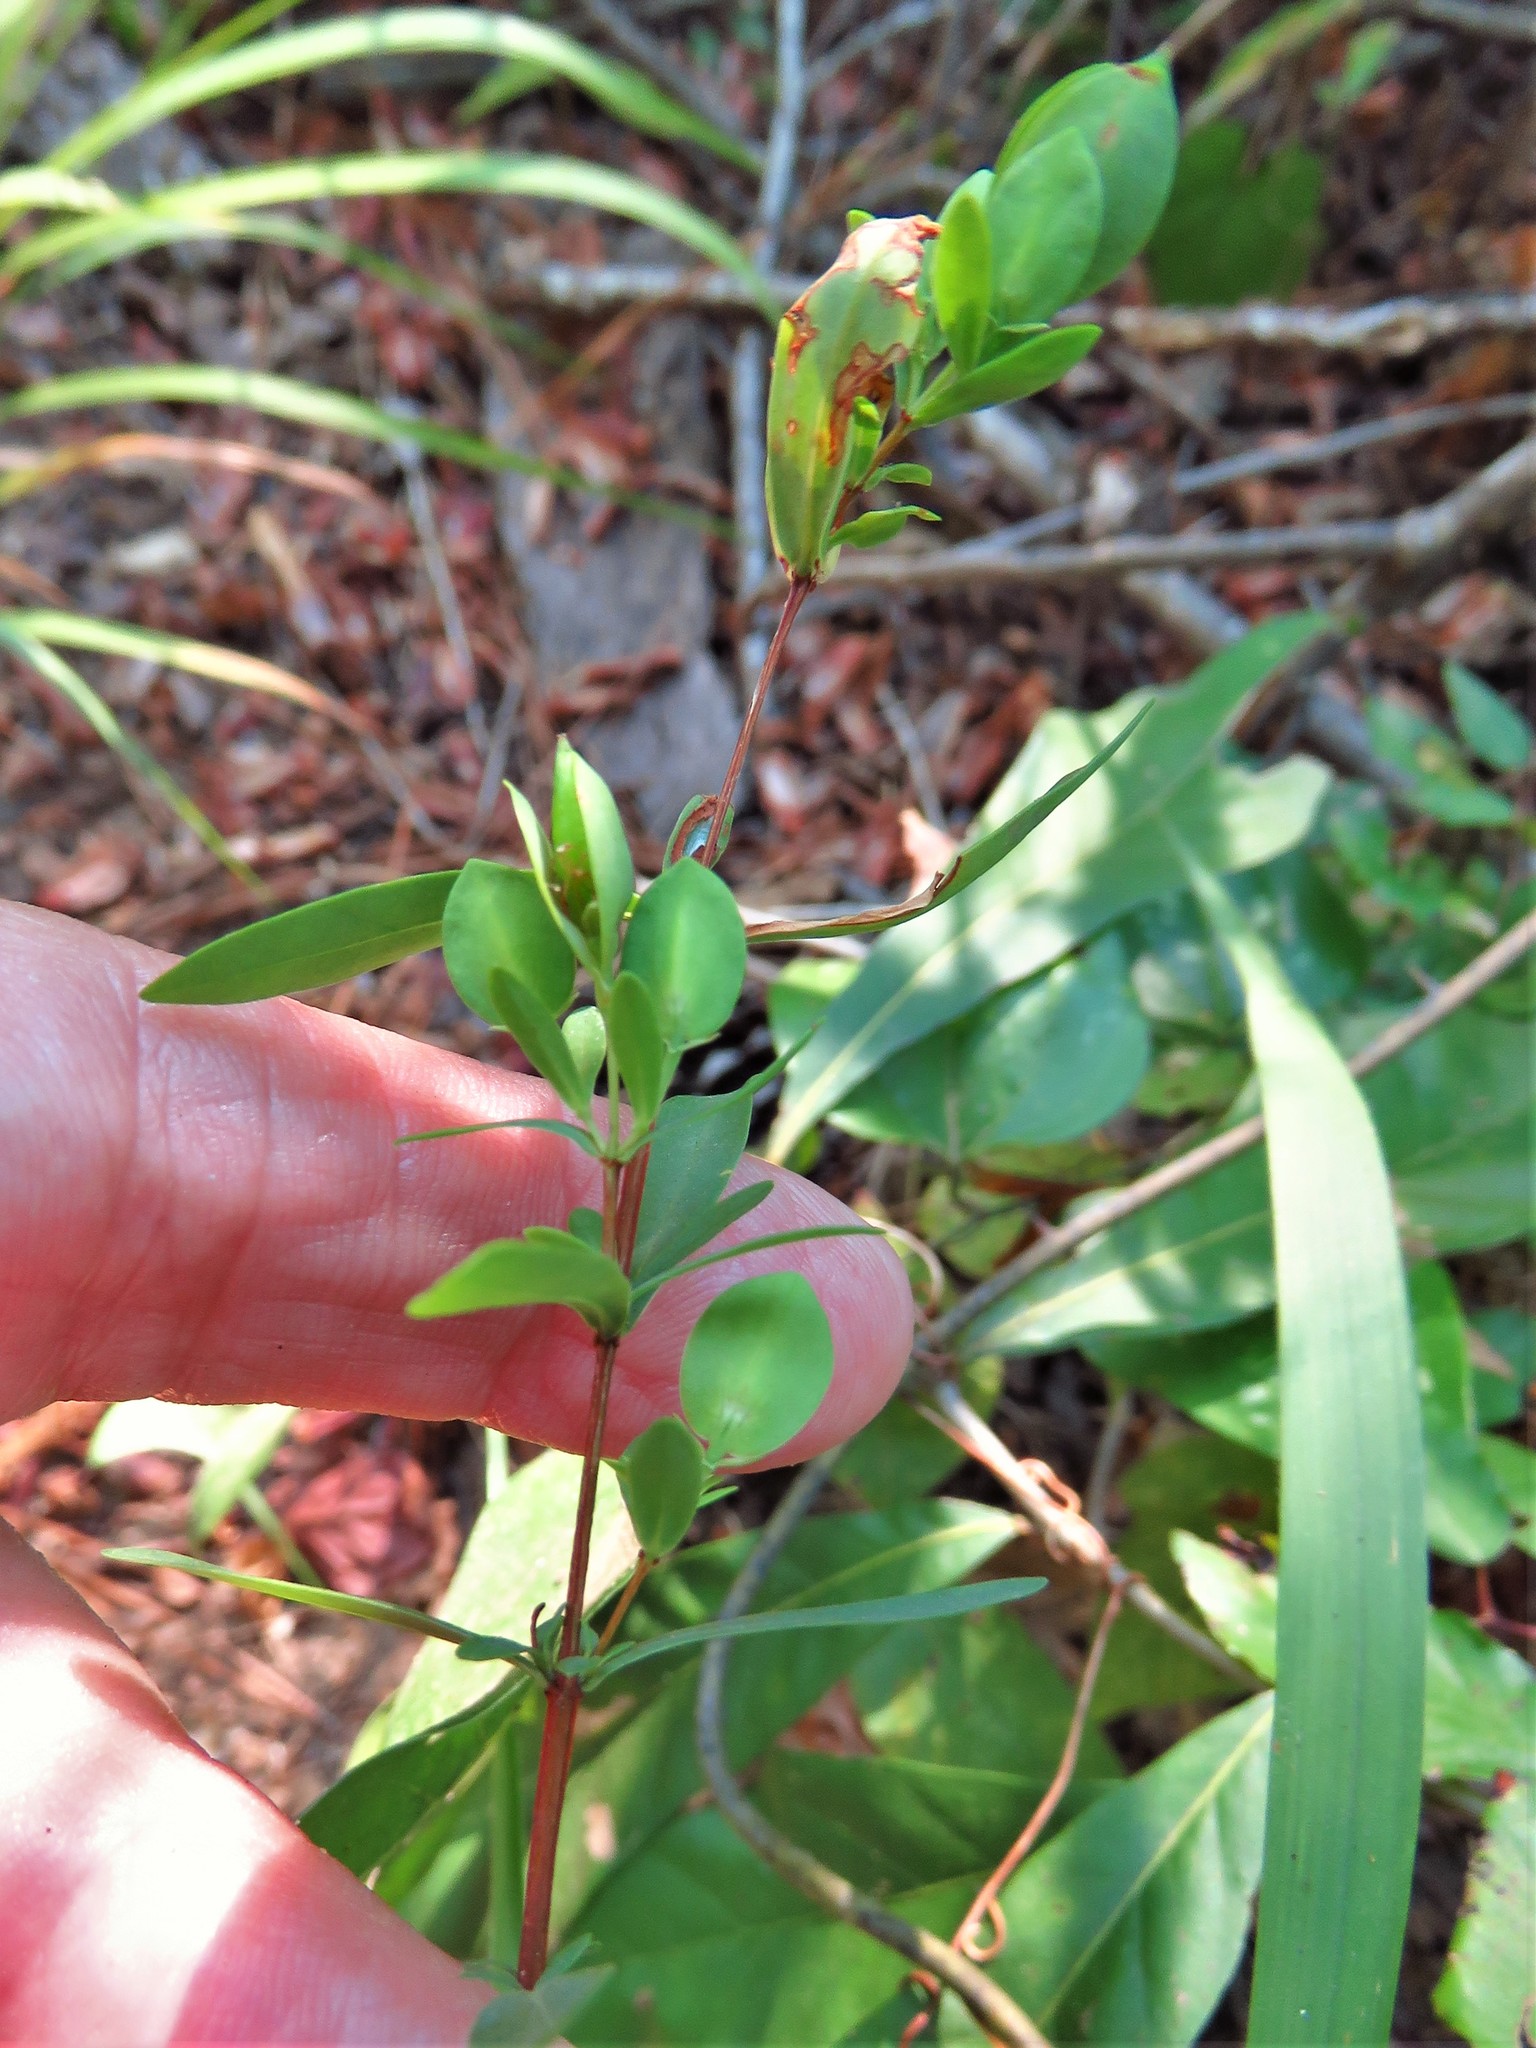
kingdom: Plantae
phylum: Tracheophyta
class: Magnoliopsida
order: Malpighiales
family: Hypericaceae
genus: Hypericum
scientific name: Hypericum hypericoides
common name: St. andrew's cross
